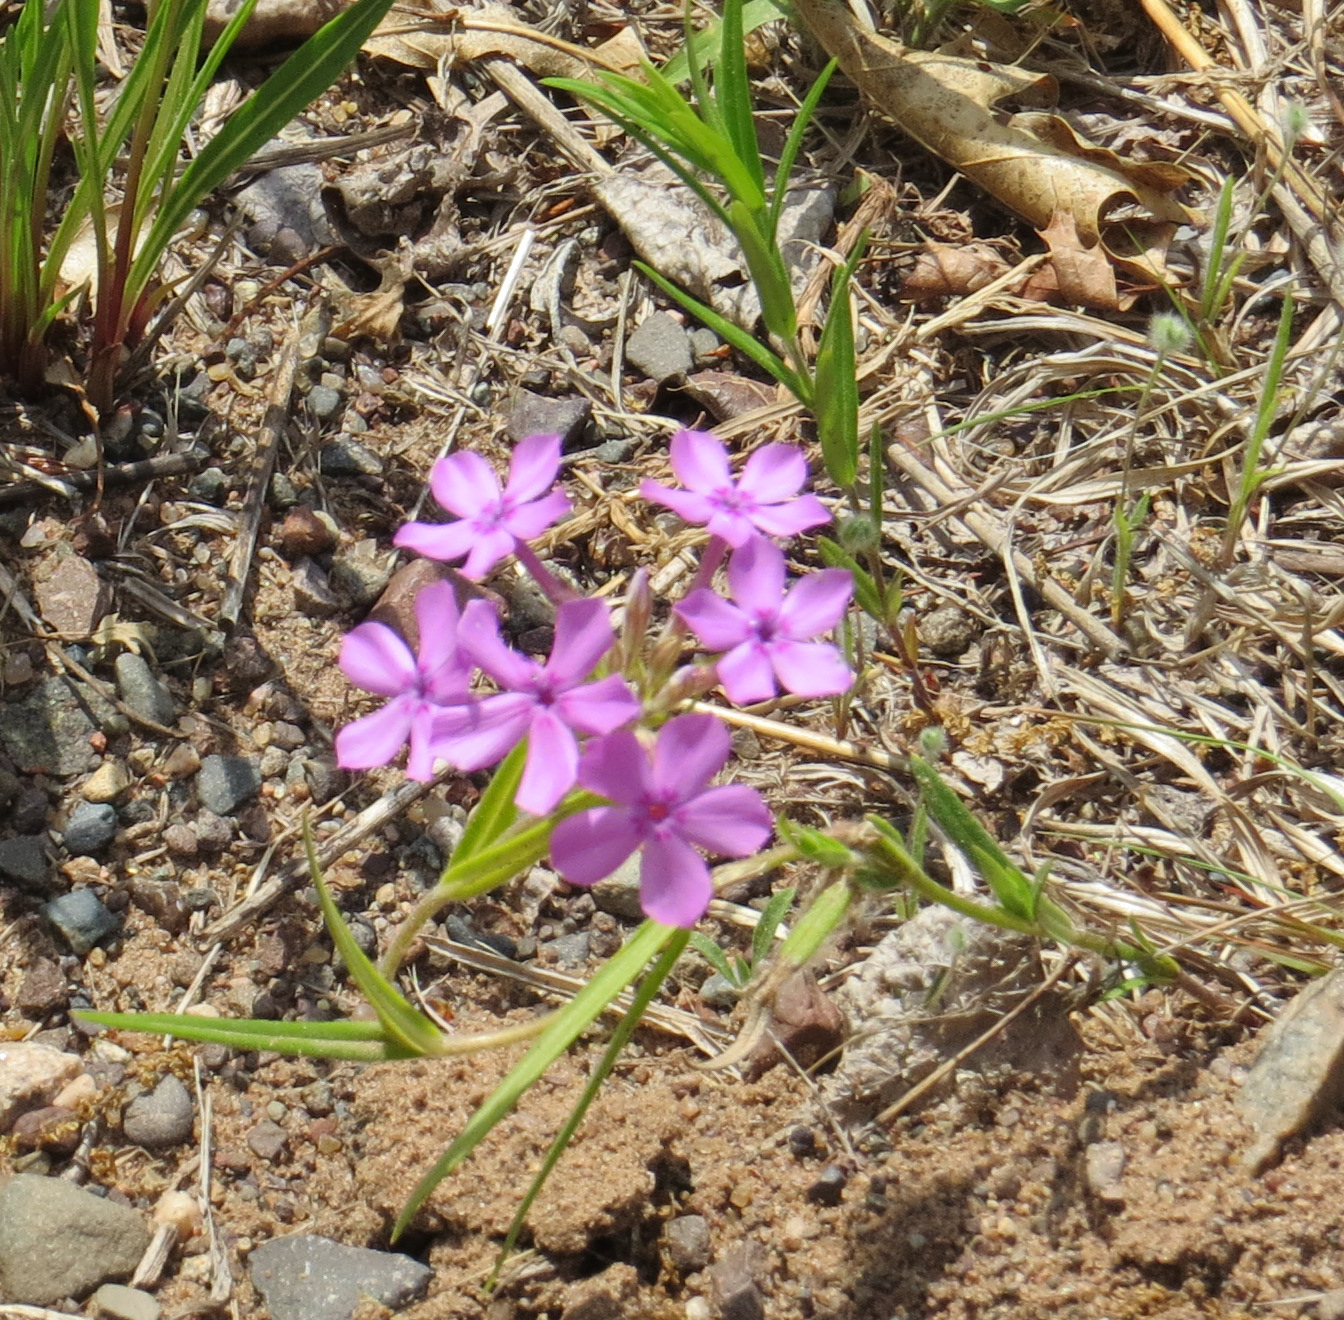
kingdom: Plantae
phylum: Tracheophyta
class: Magnoliopsida
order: Ericales
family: Polemoniaceae
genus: Phlox
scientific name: Phlox pilosa
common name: Prairie phlox
